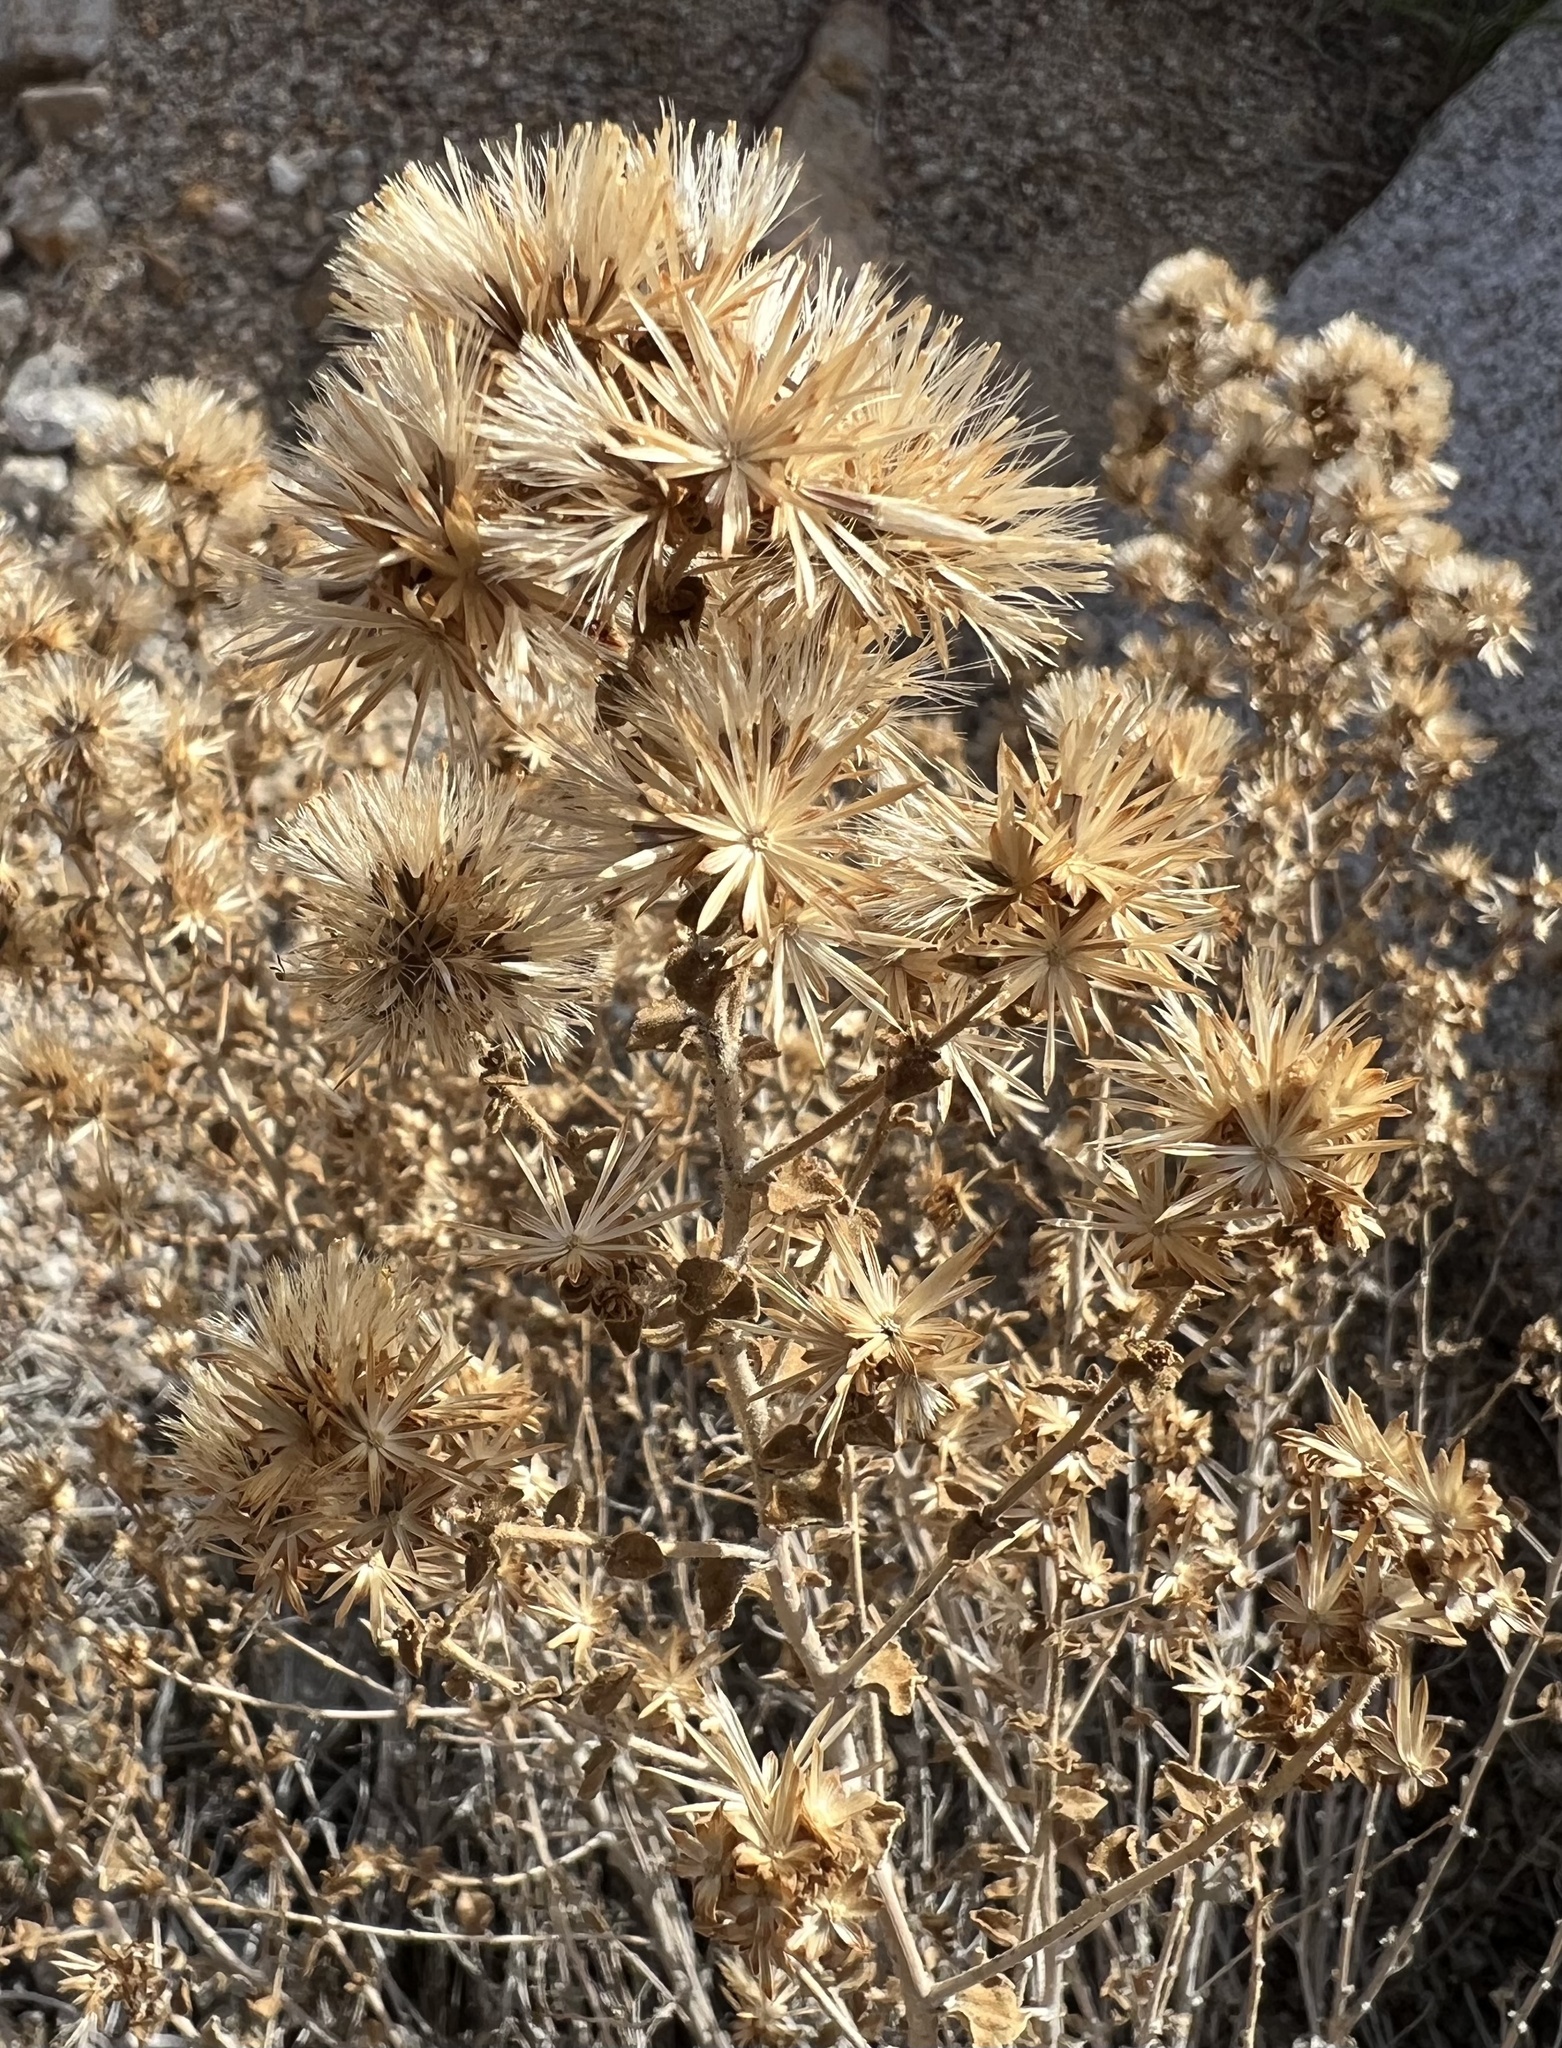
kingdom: Plantae
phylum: Tracheophyta
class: Magnoliopsida
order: Asterales
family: Asteraceae
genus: Brickellia
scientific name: Brickellia microphylla
